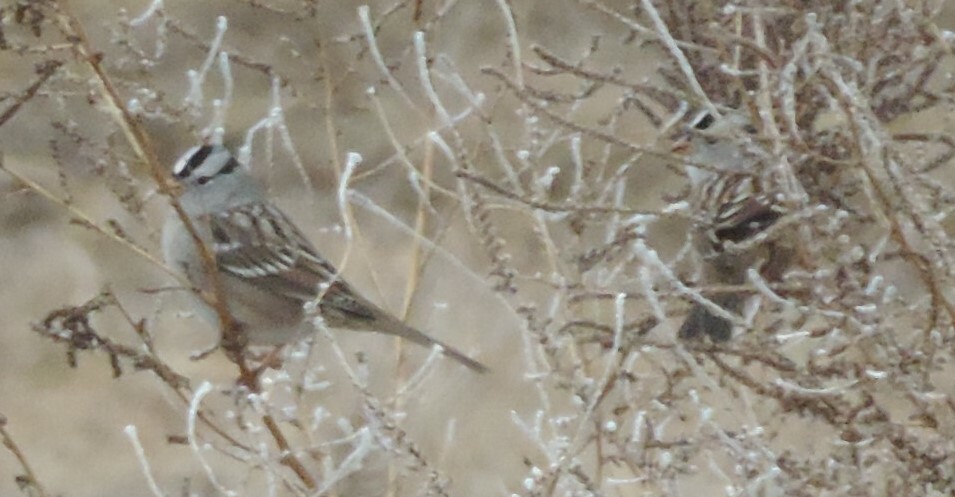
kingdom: Animalia
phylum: Chordata
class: Aves
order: Passeriformes
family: Passerellidae
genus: Zonotrichia
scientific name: Zonotrichia leucophrys
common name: White-crowned sparrow
